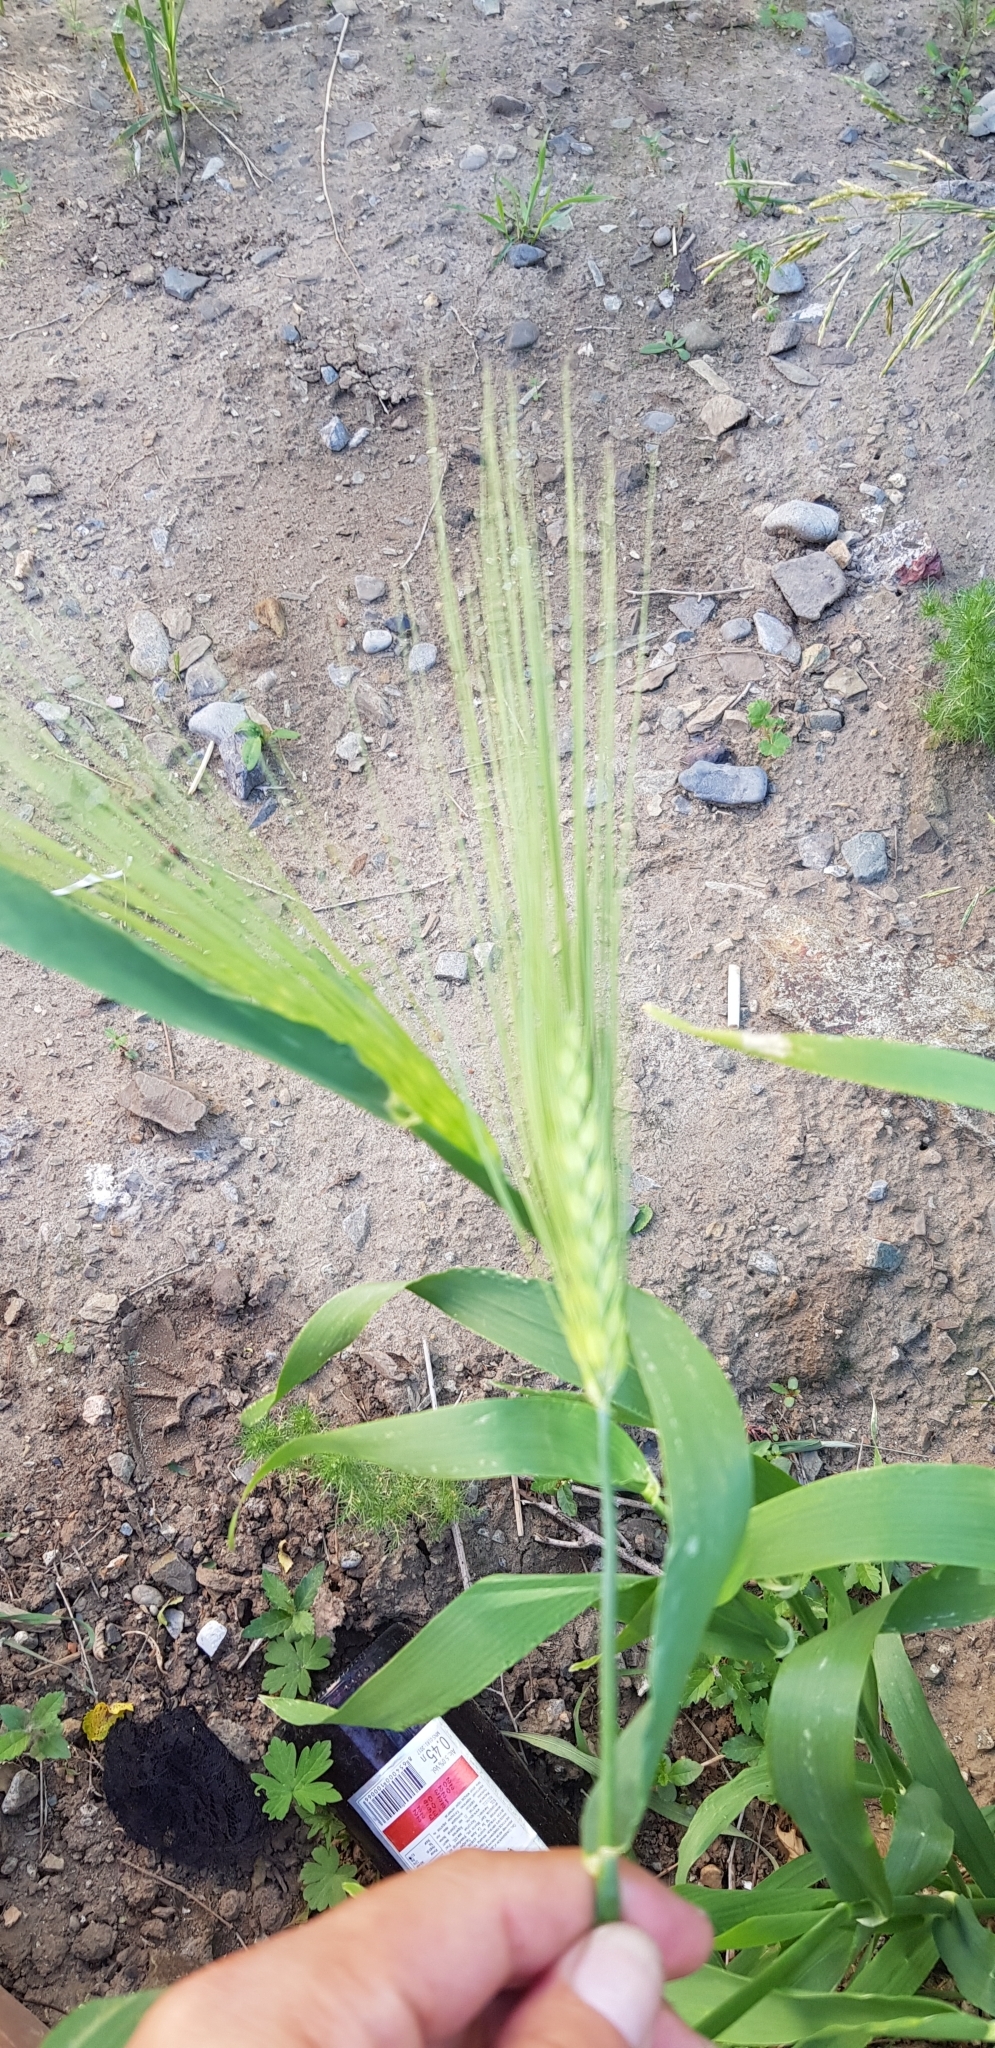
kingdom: Plantae
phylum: Tracheophyta
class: Liliopsida
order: Poales
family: Poaceae
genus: Triticum
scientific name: Triticum aestivum
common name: Common wheat
